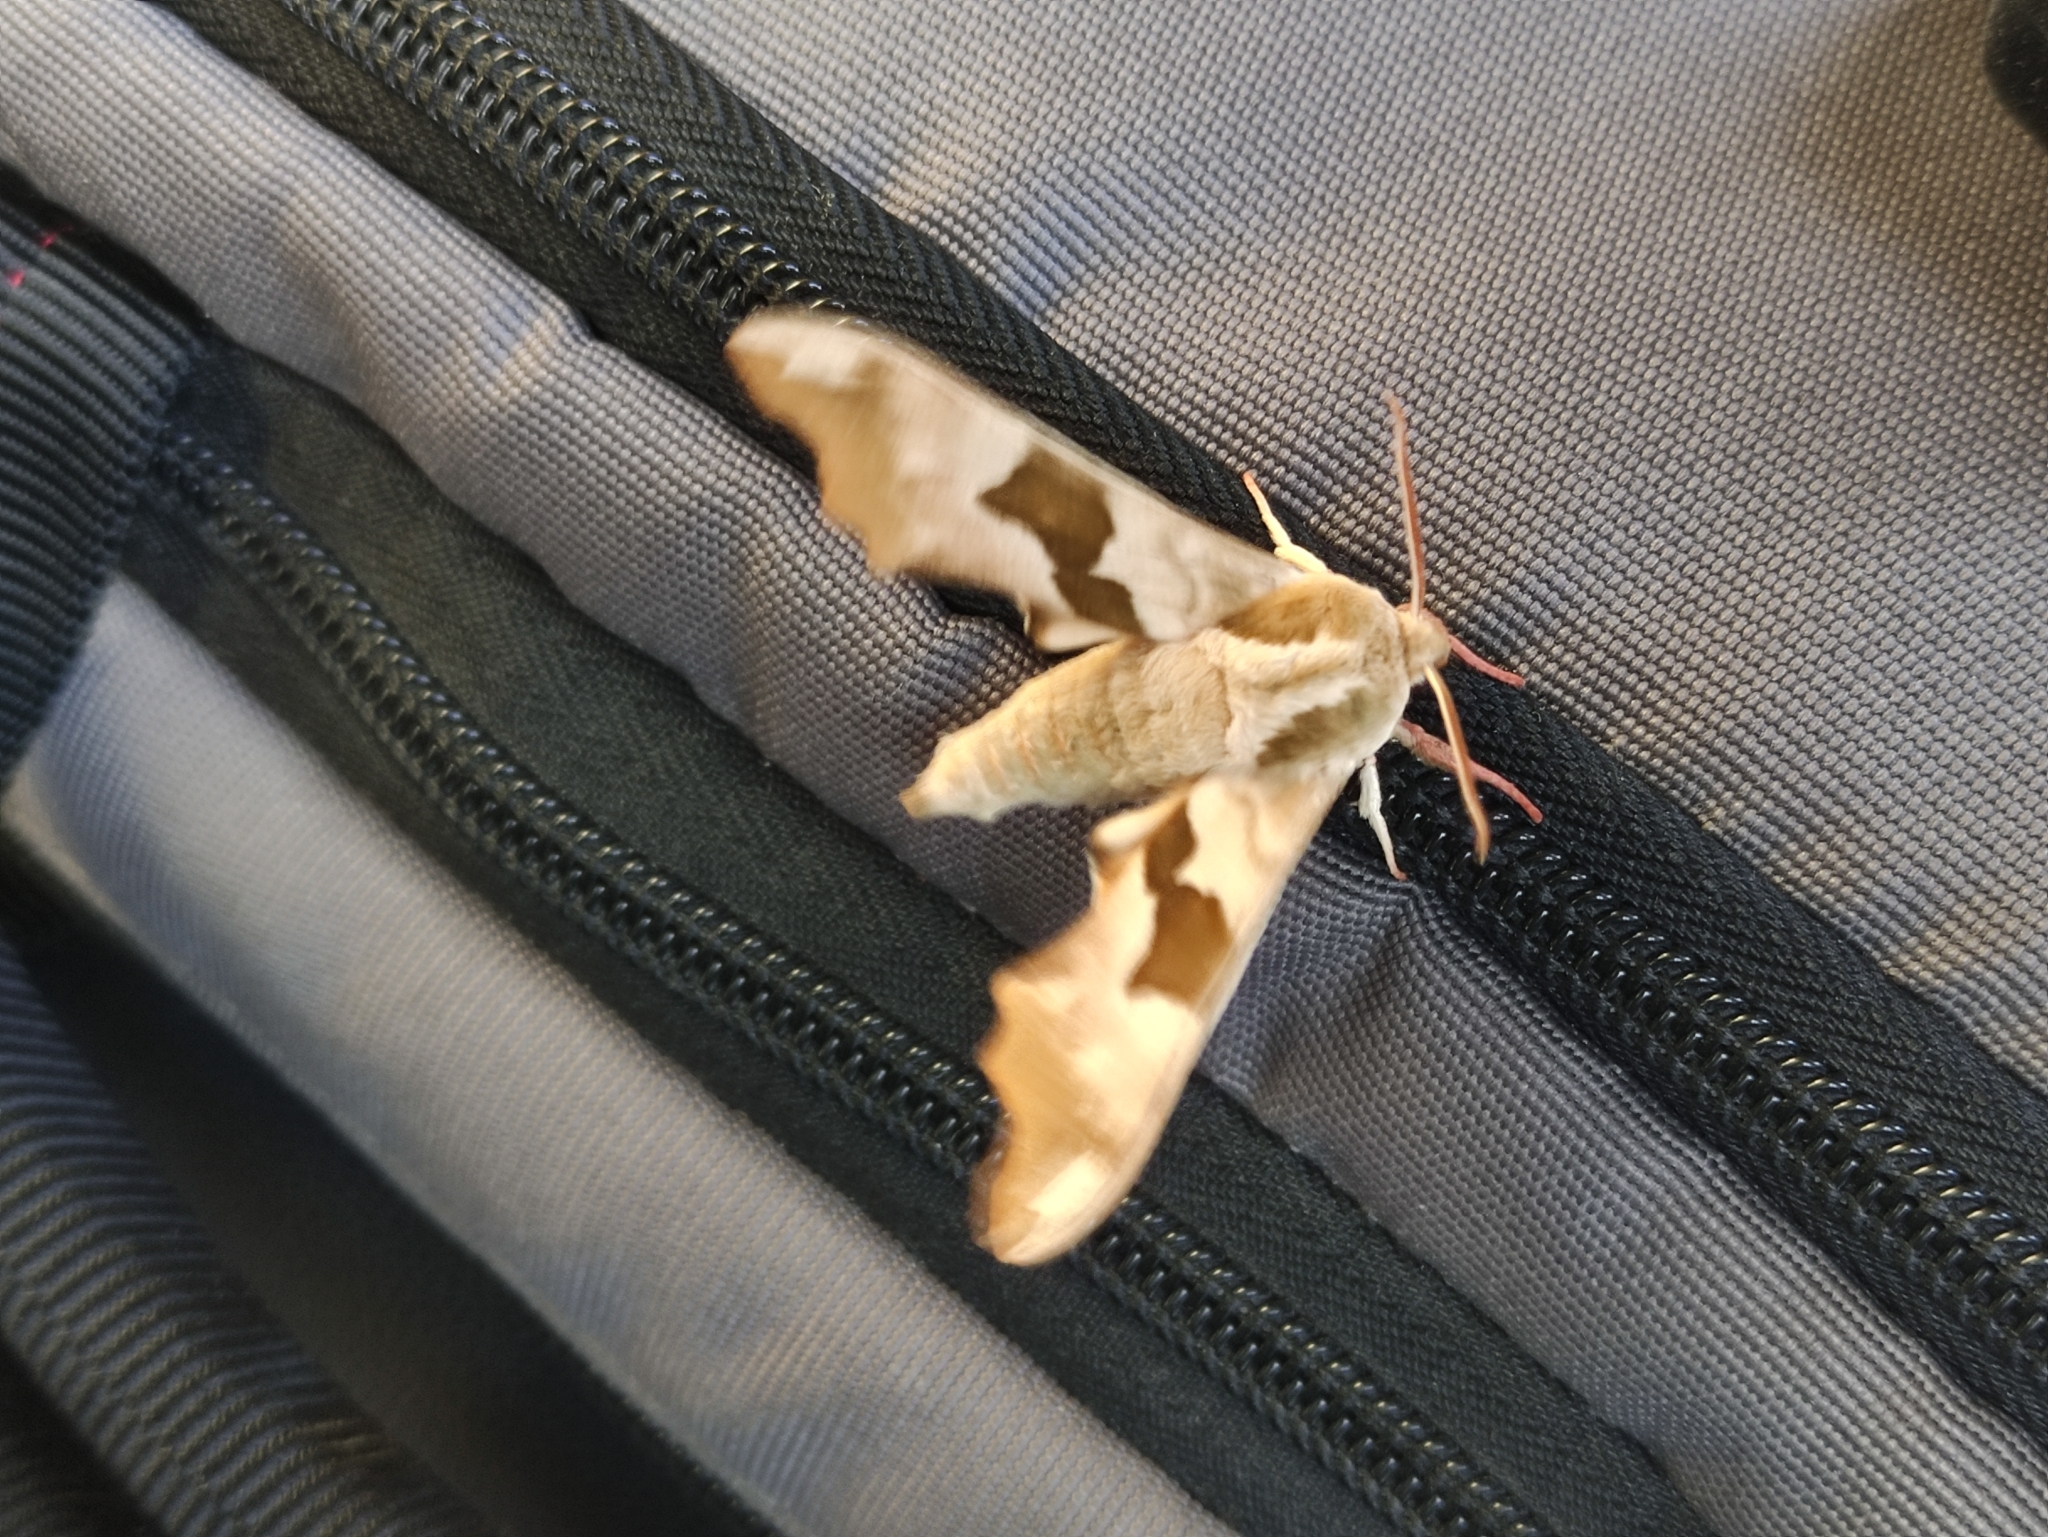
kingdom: Animalia
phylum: Arthropoda
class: Insecta
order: Lepidoptera
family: Sphingidae
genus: Mimas
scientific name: Mimas tiliae
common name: Lime hawk-moth
